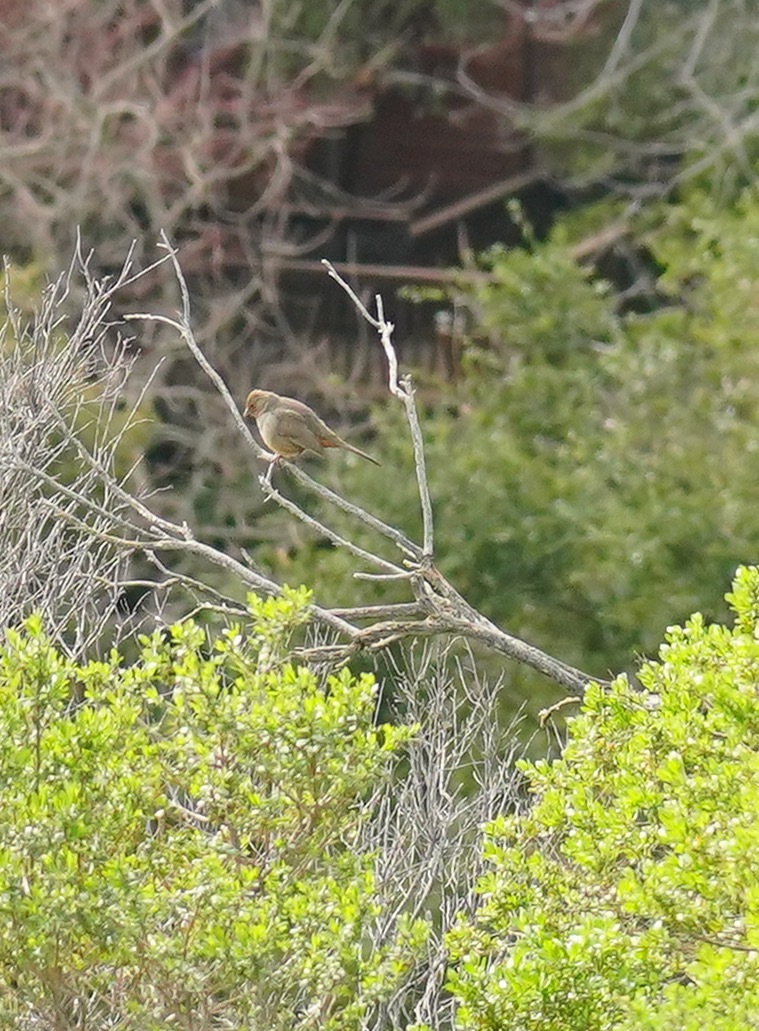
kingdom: Animalia
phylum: Chordata
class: Aves
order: Passeriformes
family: Passerellidae
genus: Melozone
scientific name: Melozone crissalis
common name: California towhee
